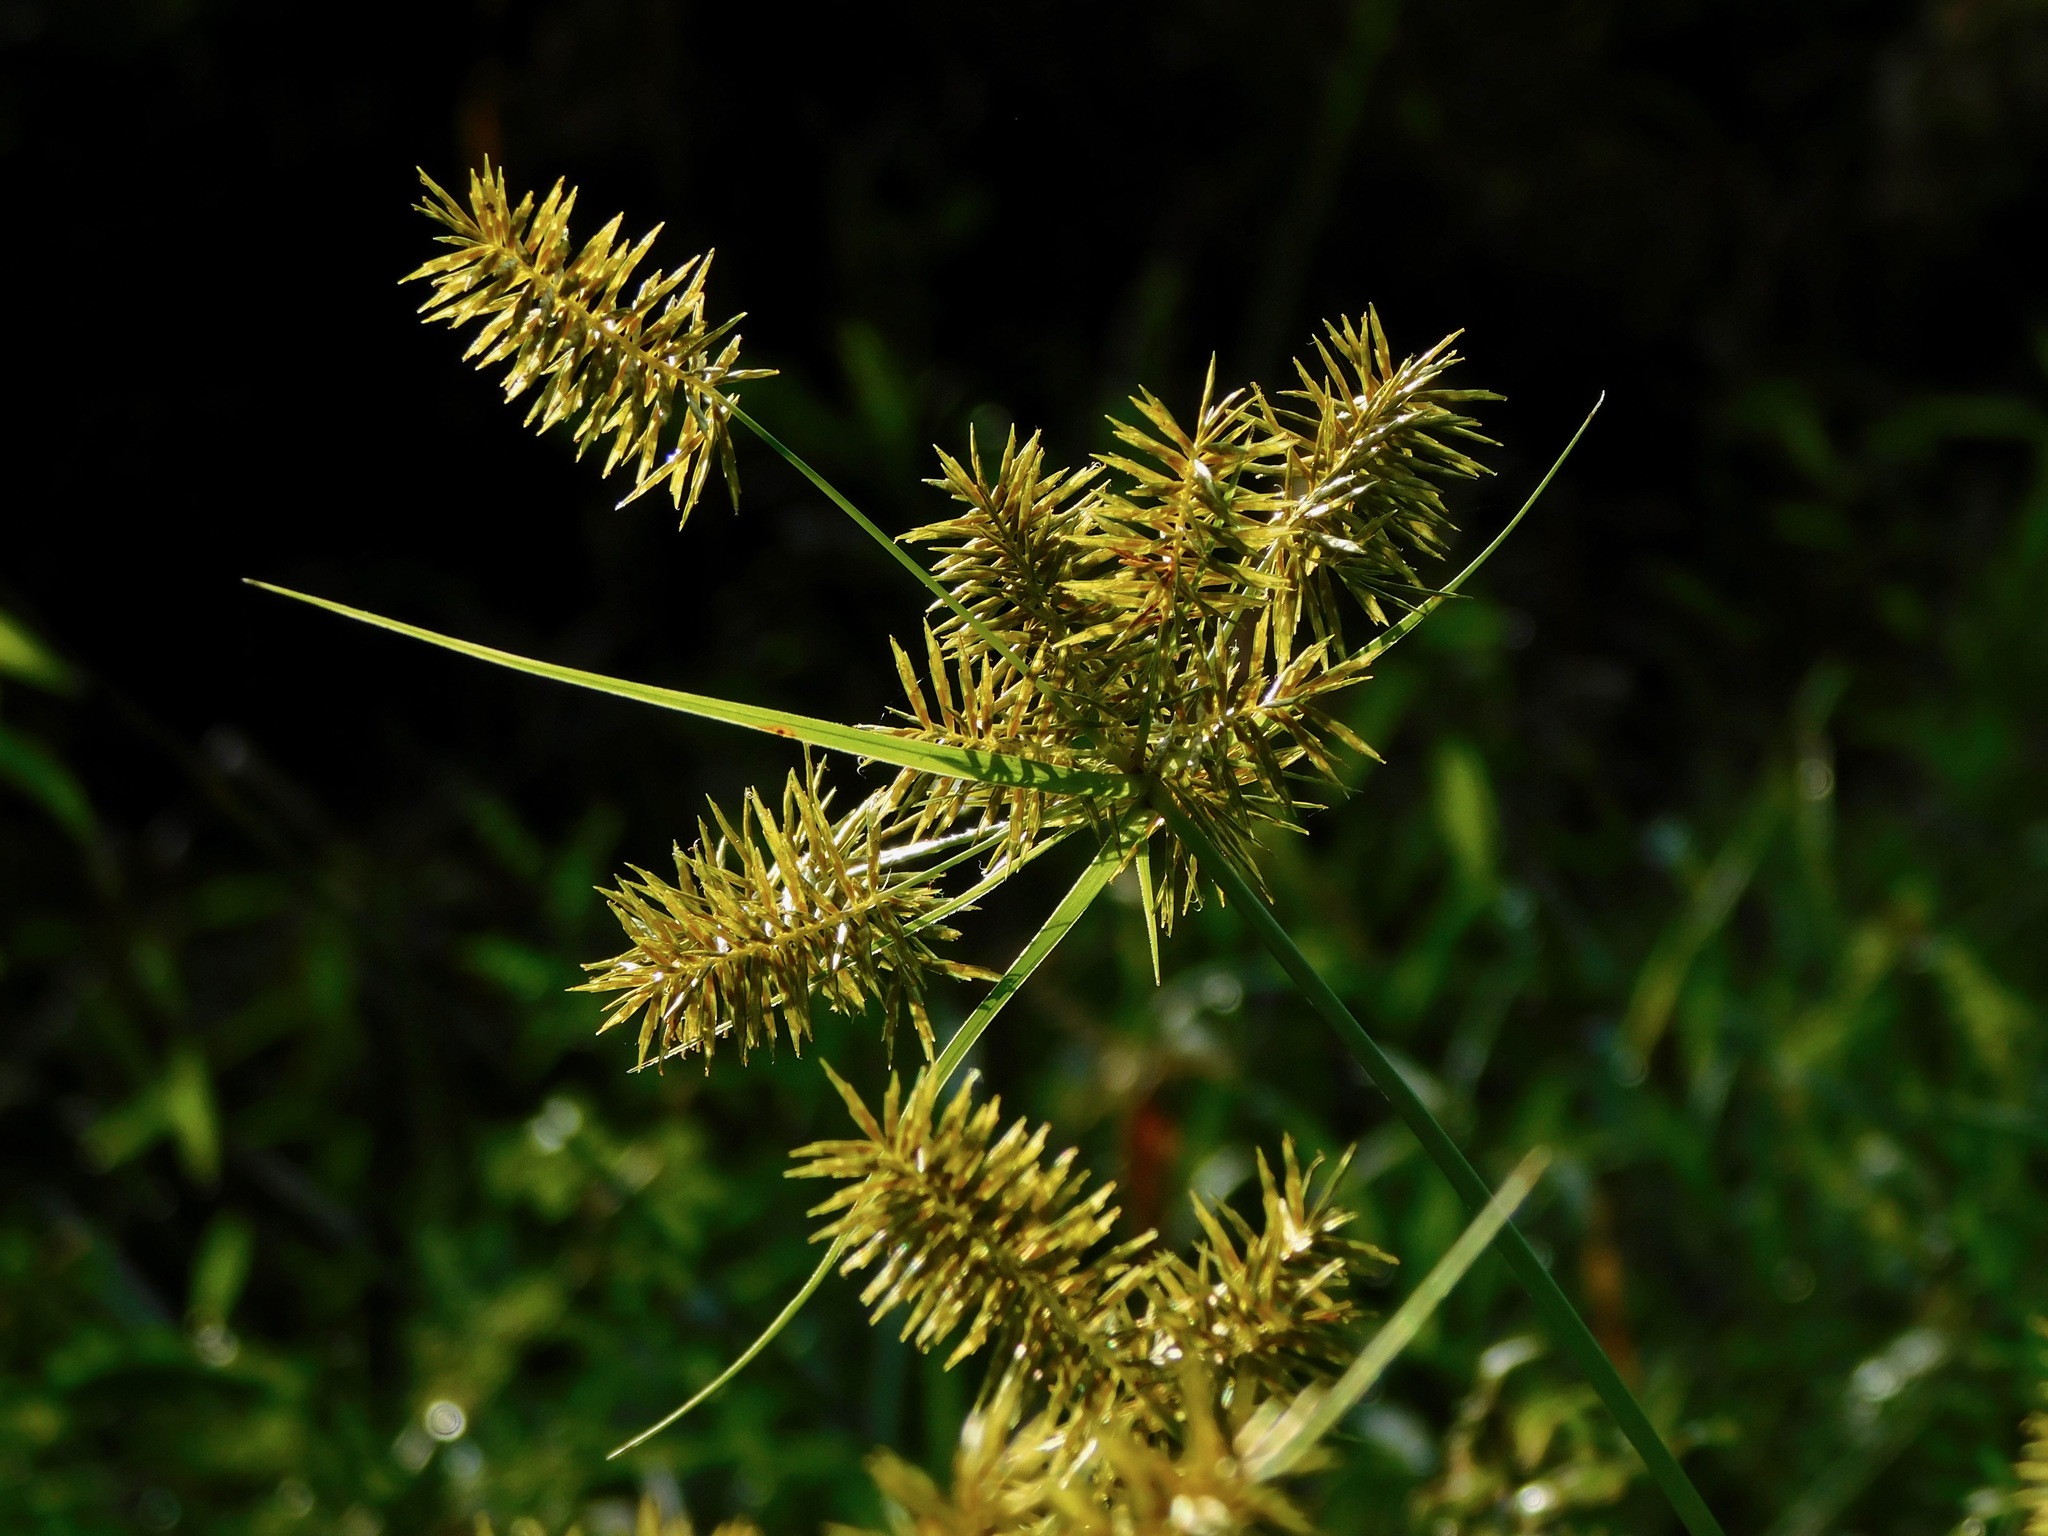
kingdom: Plantae
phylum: Tracheophyta
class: Liliopsida
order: Poales
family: Cyperaceae
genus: Cyperus
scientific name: Cyperus strigosus
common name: False nutsedge
